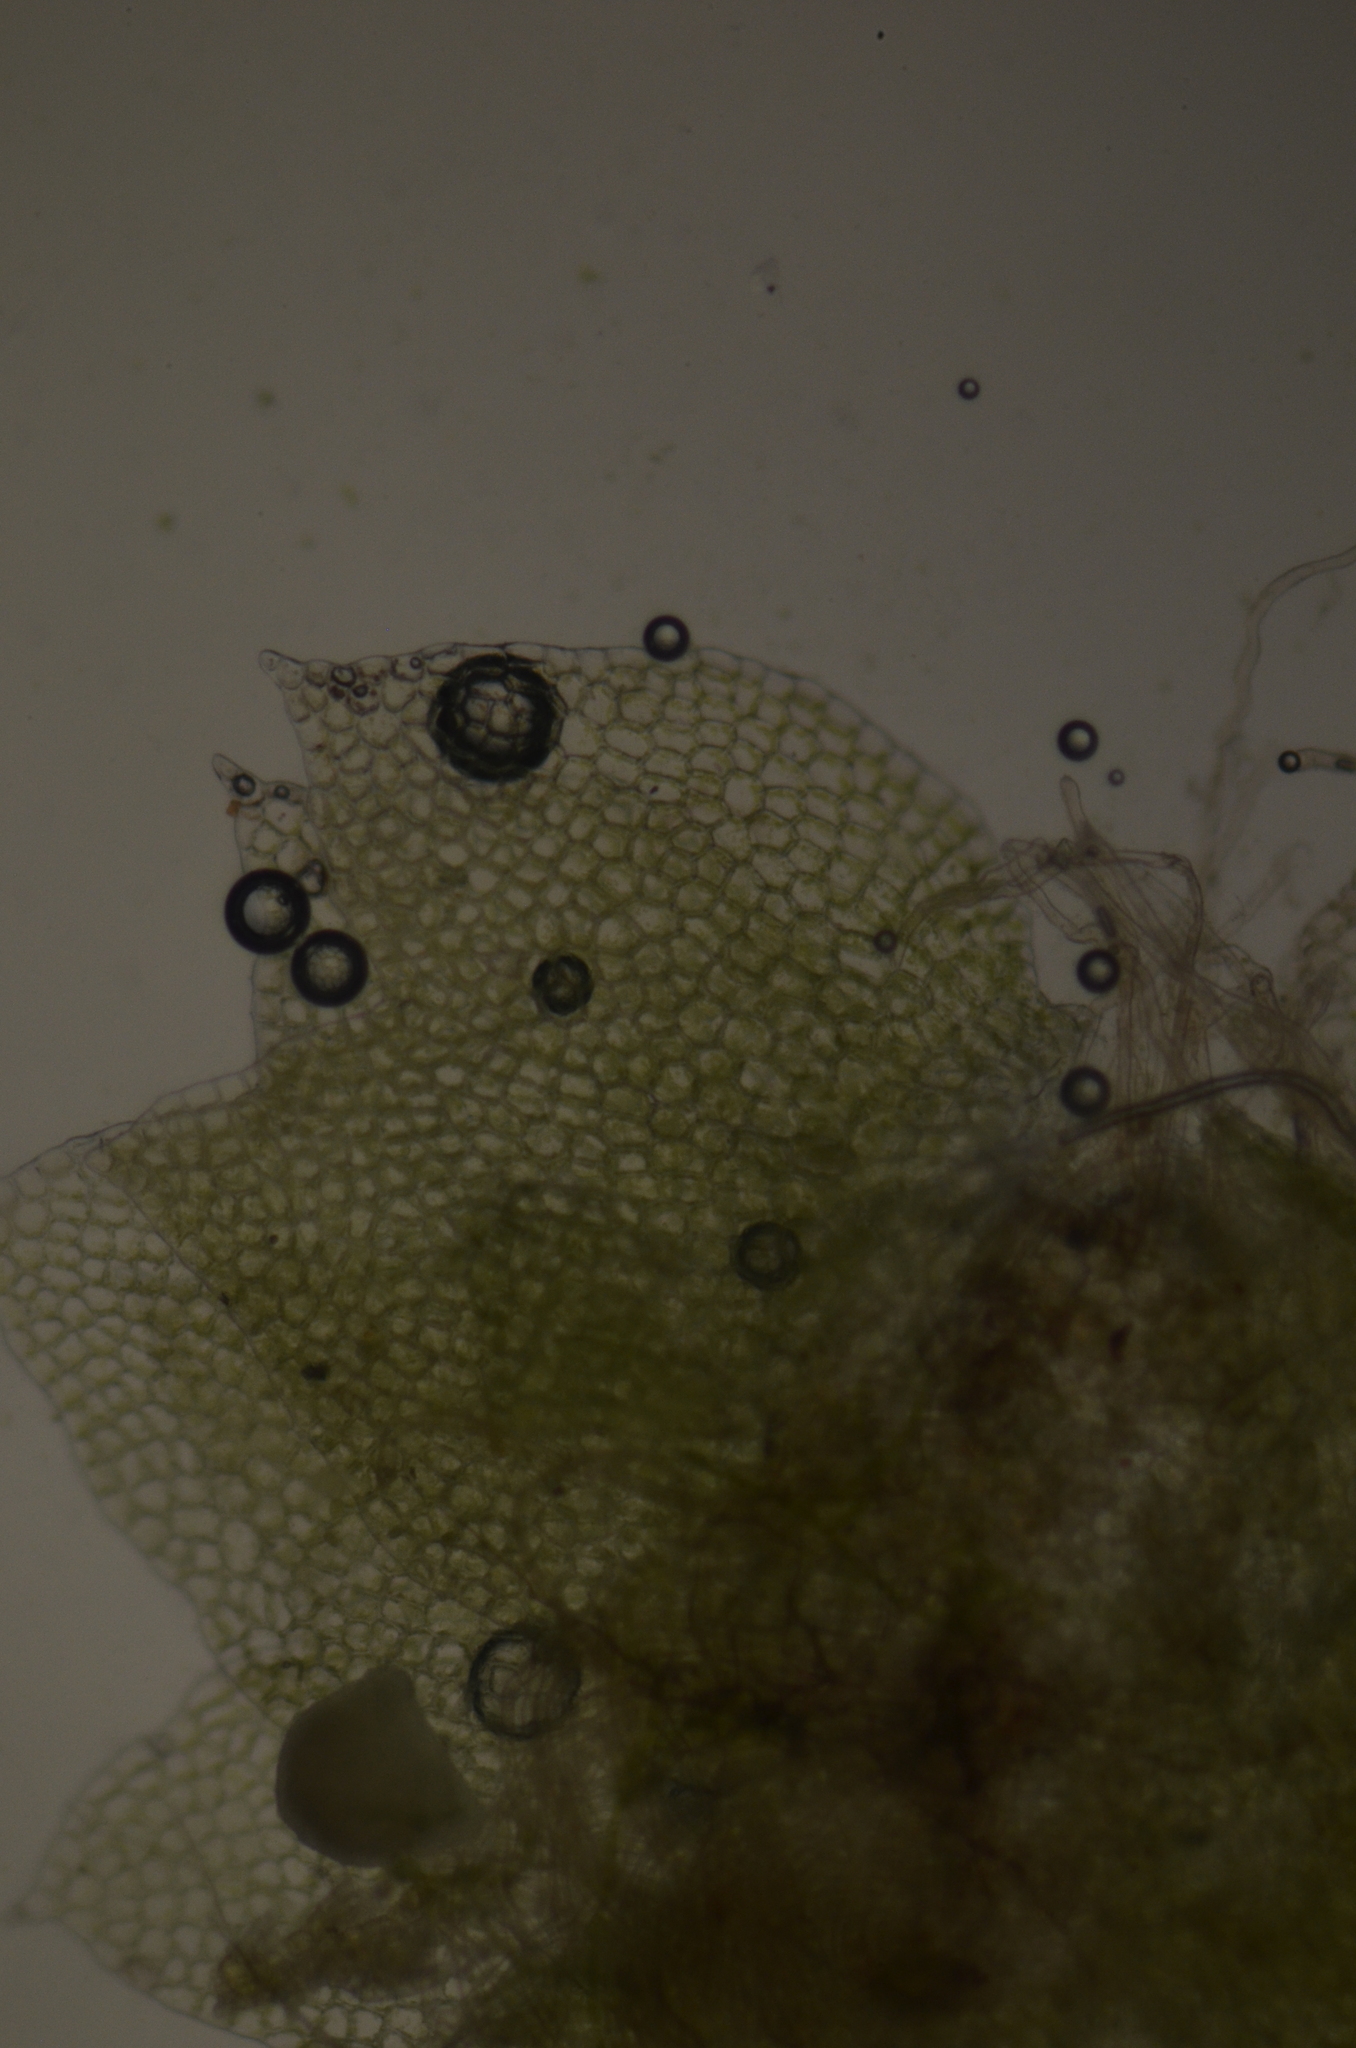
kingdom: Plantae
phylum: Marchantiophyta
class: Jungermanniopsida
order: Jungermanniales
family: Cephaloziaceae
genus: Fuscocephaloziopsis
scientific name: Fuscocephaloziopsis monticola
